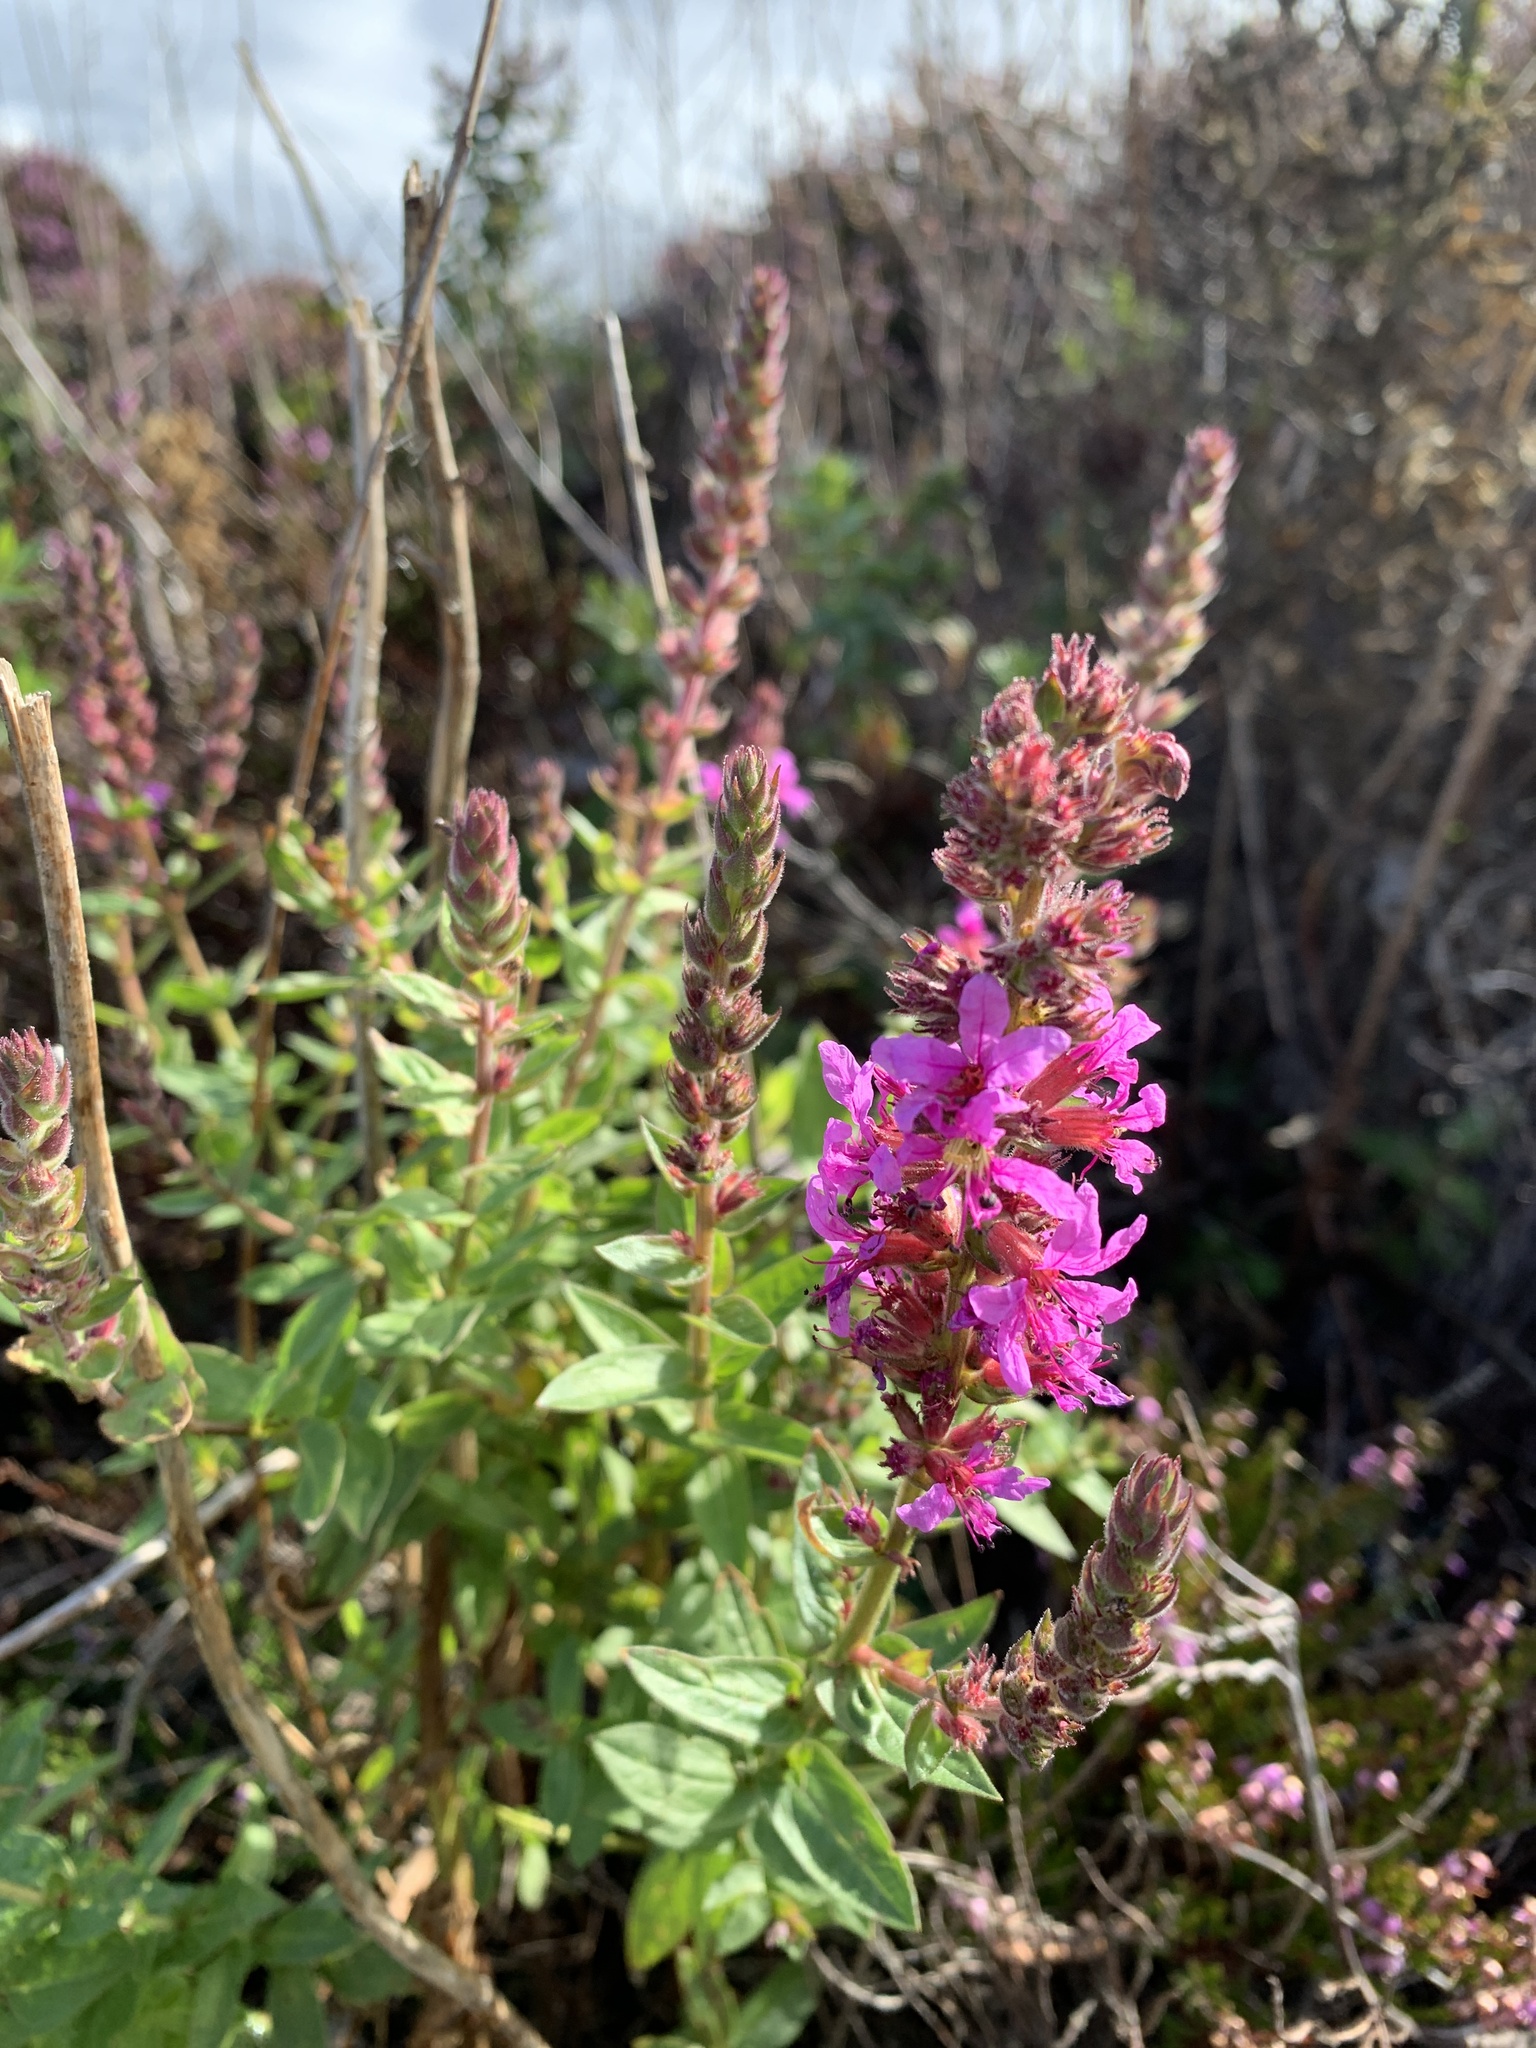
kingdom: Plantae
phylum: Tracheophyta
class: Magnoliopsida
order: Myrtales
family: Lythraceae
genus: Lythrum
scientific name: Lythrum salicaria
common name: Purple loosestrife
